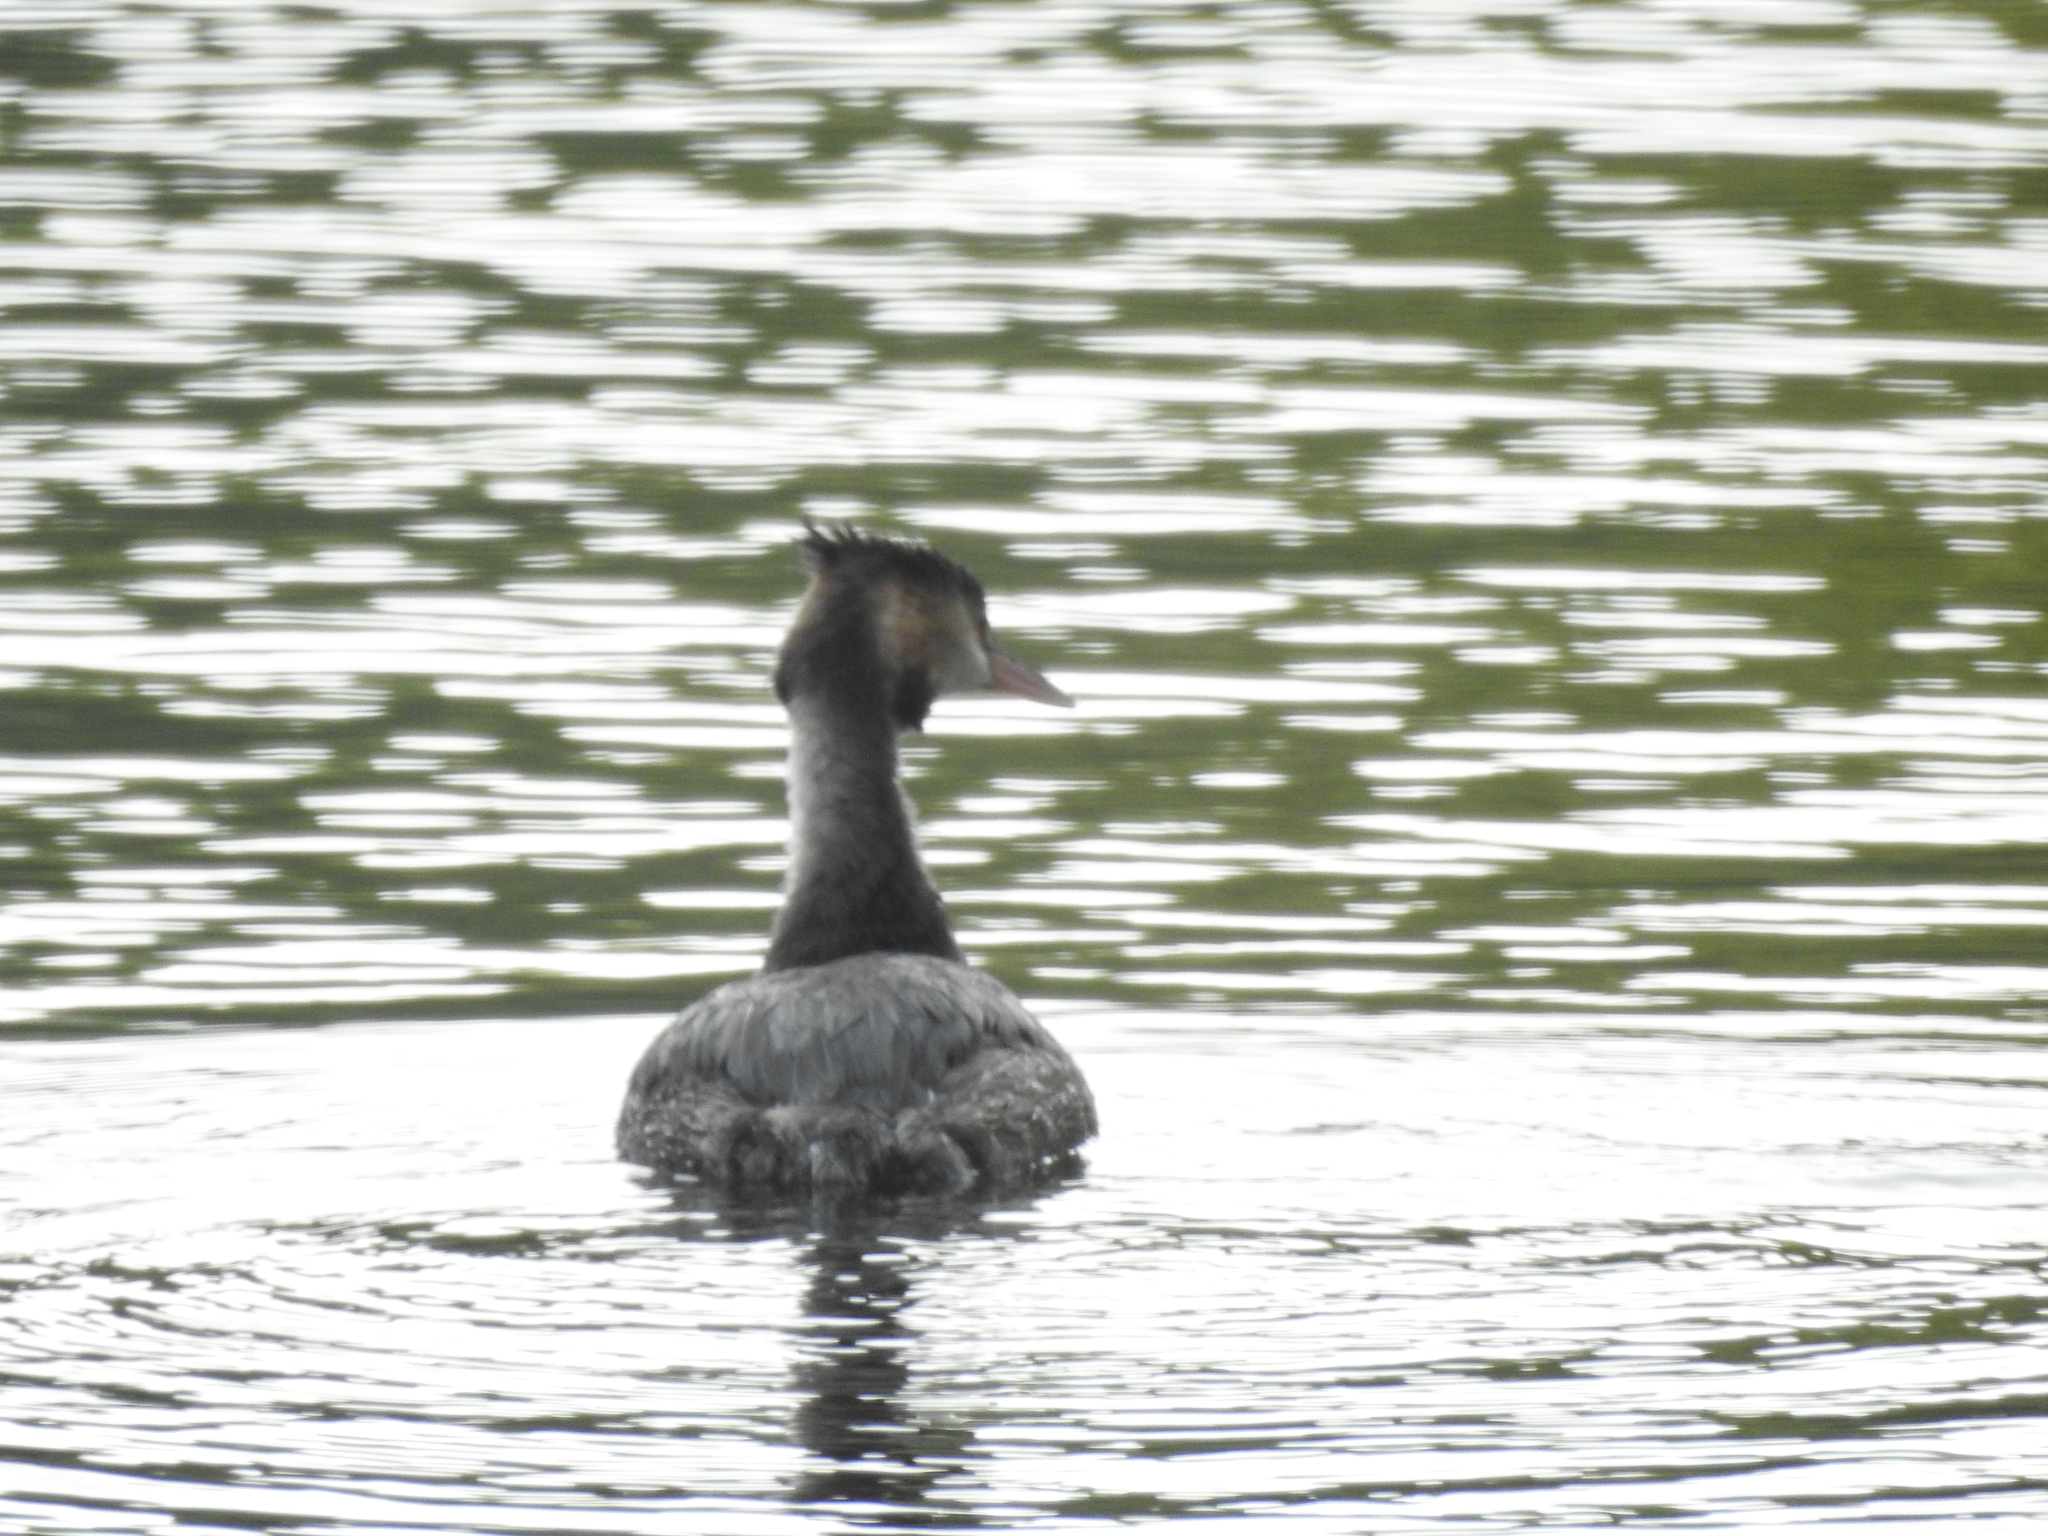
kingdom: Animalia
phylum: Chordata
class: Aves
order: Podicipediformes
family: Podicipedidae
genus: Podiceps
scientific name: Podiceps cristatus
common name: Great crested grebe
